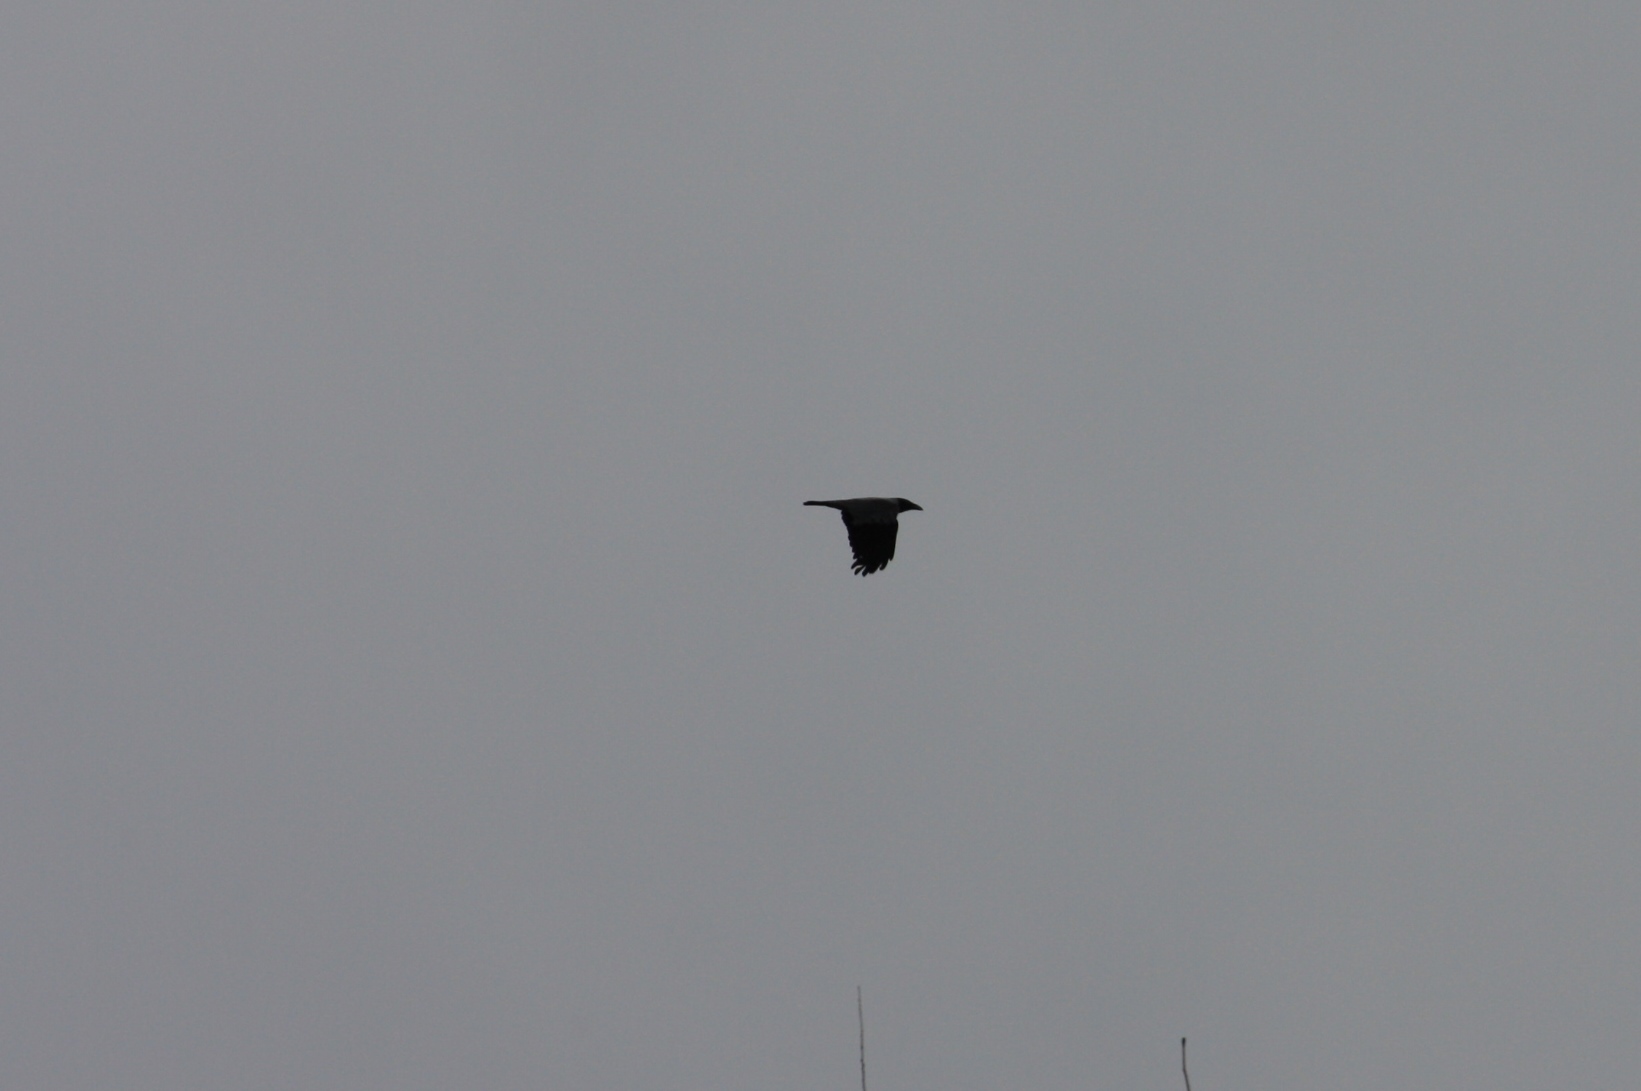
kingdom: Animalia
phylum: Chordata
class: Aves
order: Passeriformes
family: Corvidae
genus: Corvus
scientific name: Corvus cornix
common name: Hooded crow
